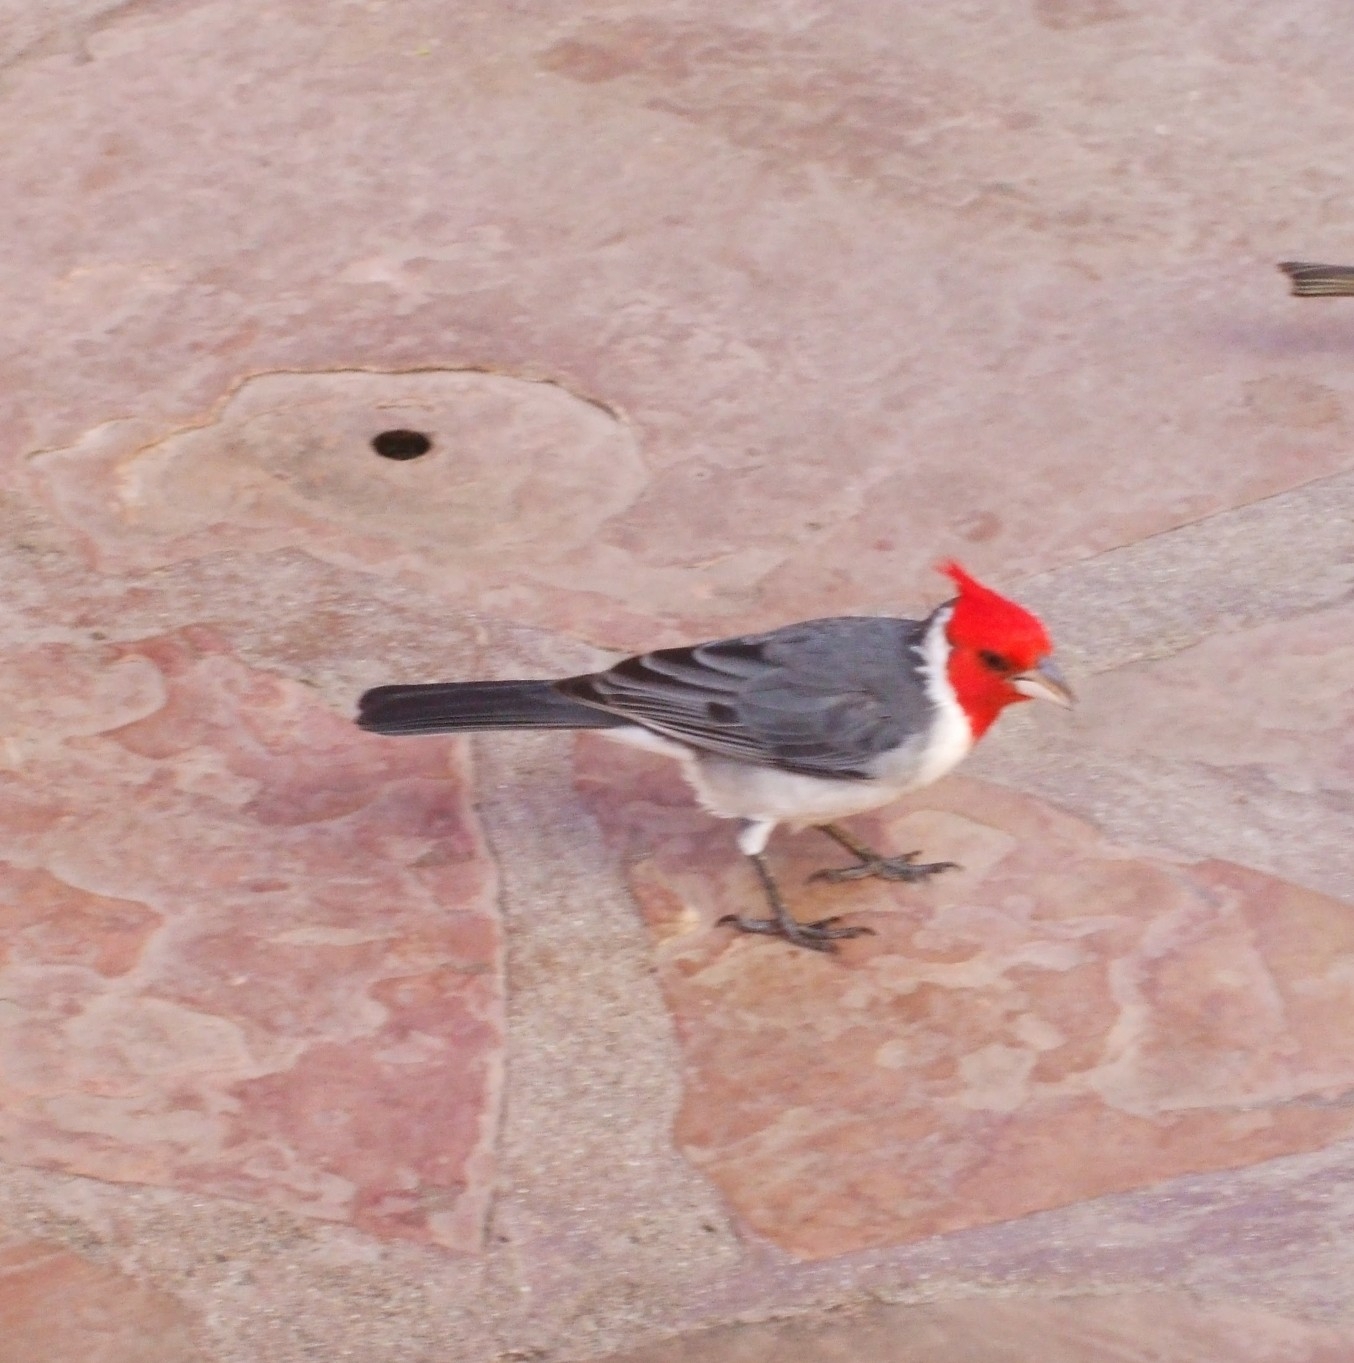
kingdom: Animalia
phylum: Chordata
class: Aves
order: Passeriformes
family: Thraupidae
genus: Paroaria
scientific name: Paroaria coronata
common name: Red-crested cardinal
